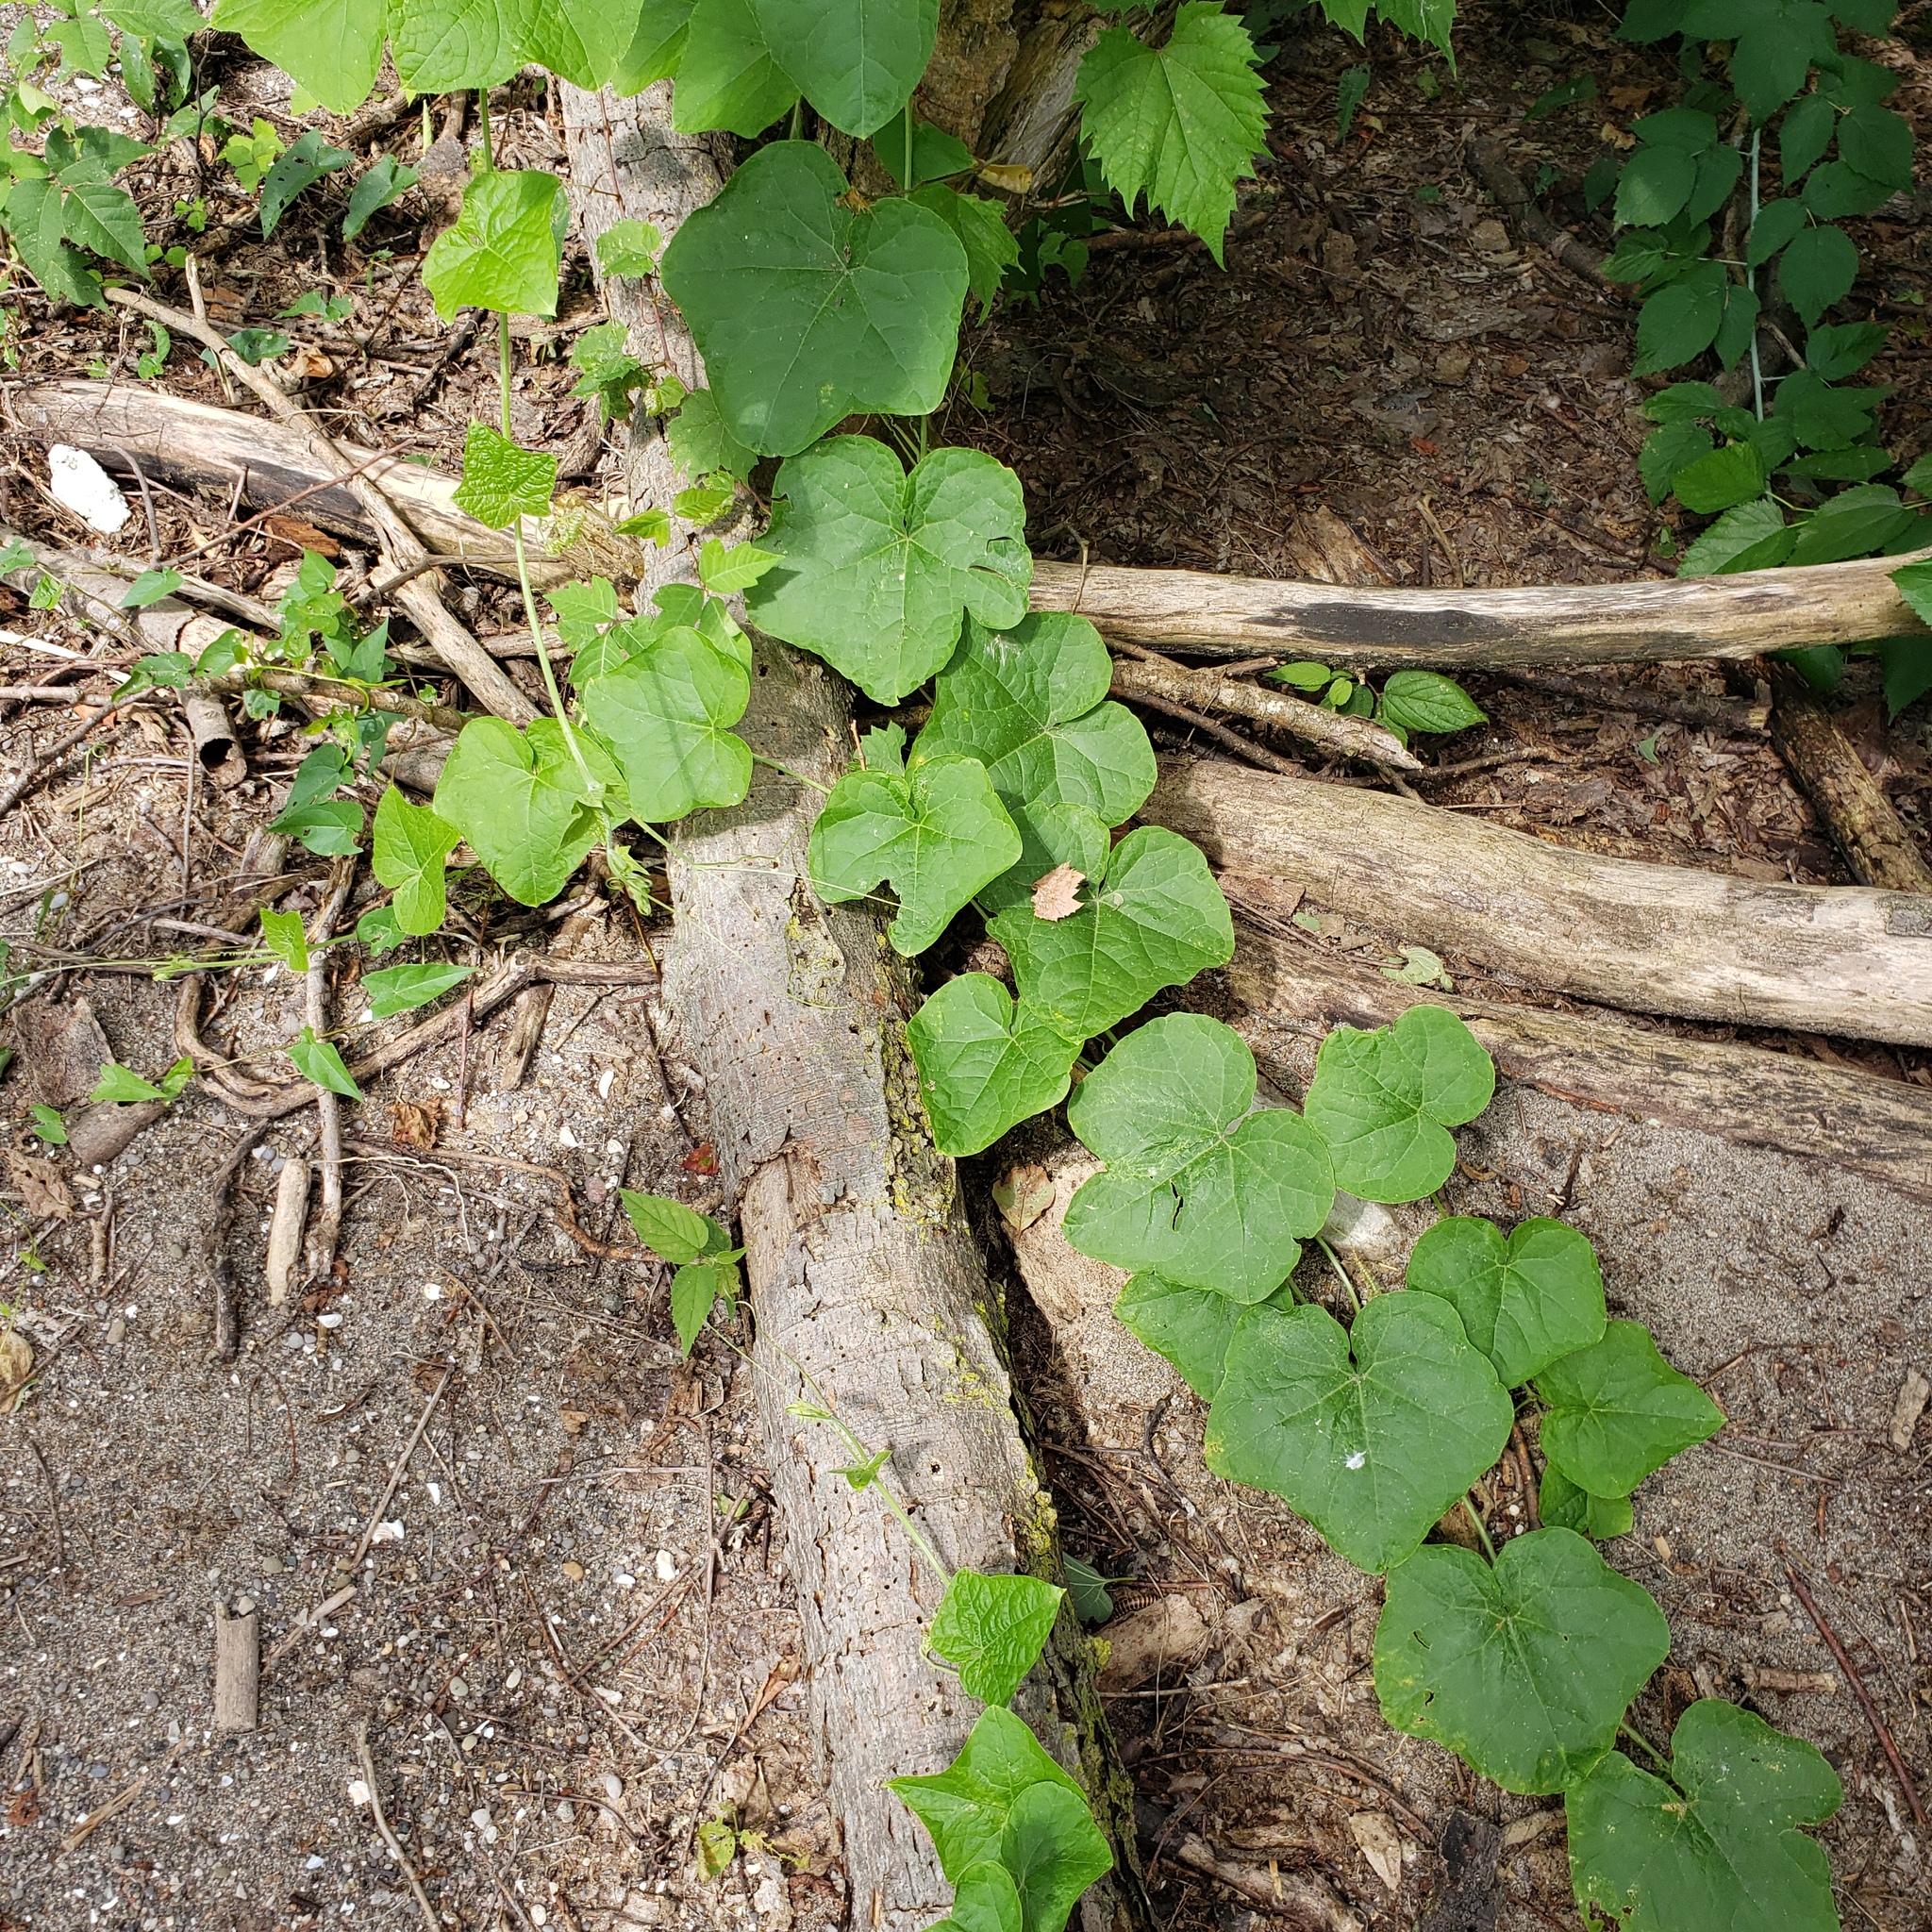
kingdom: Plantae
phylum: Tracheophyta
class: Magnoliopsida
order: Ranunculales
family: Menispermaceae
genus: Menispermum
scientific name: Menispermum canadense
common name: Moonseed
